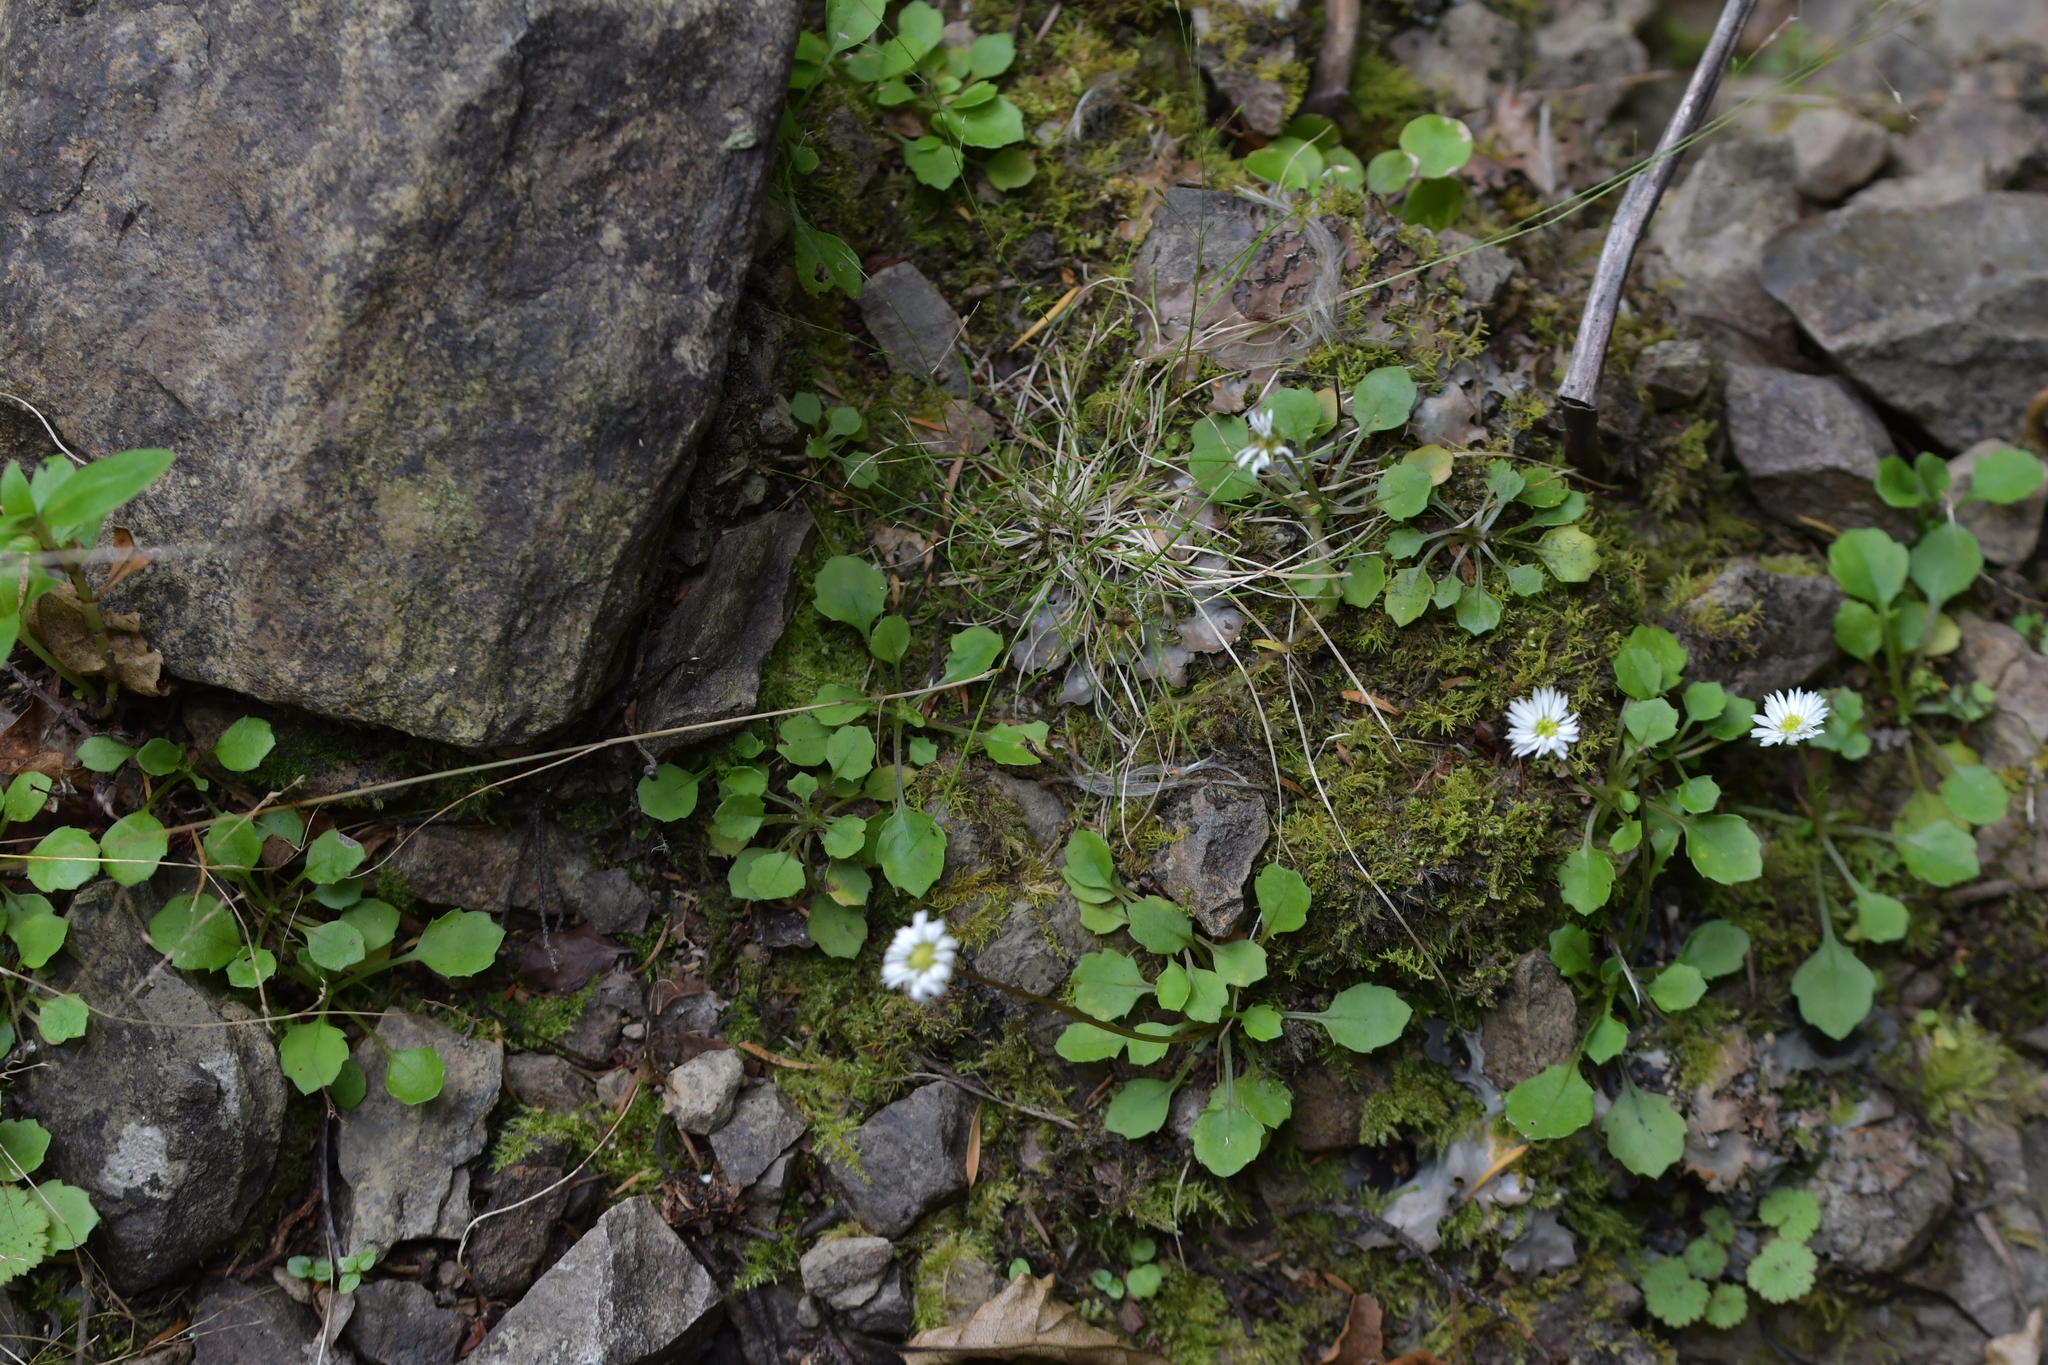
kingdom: Plantae
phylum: Tracheophyta
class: Magnoliopsida
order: Asterales
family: Asteraceae
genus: Lagenophora
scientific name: Lagenophora pumila
